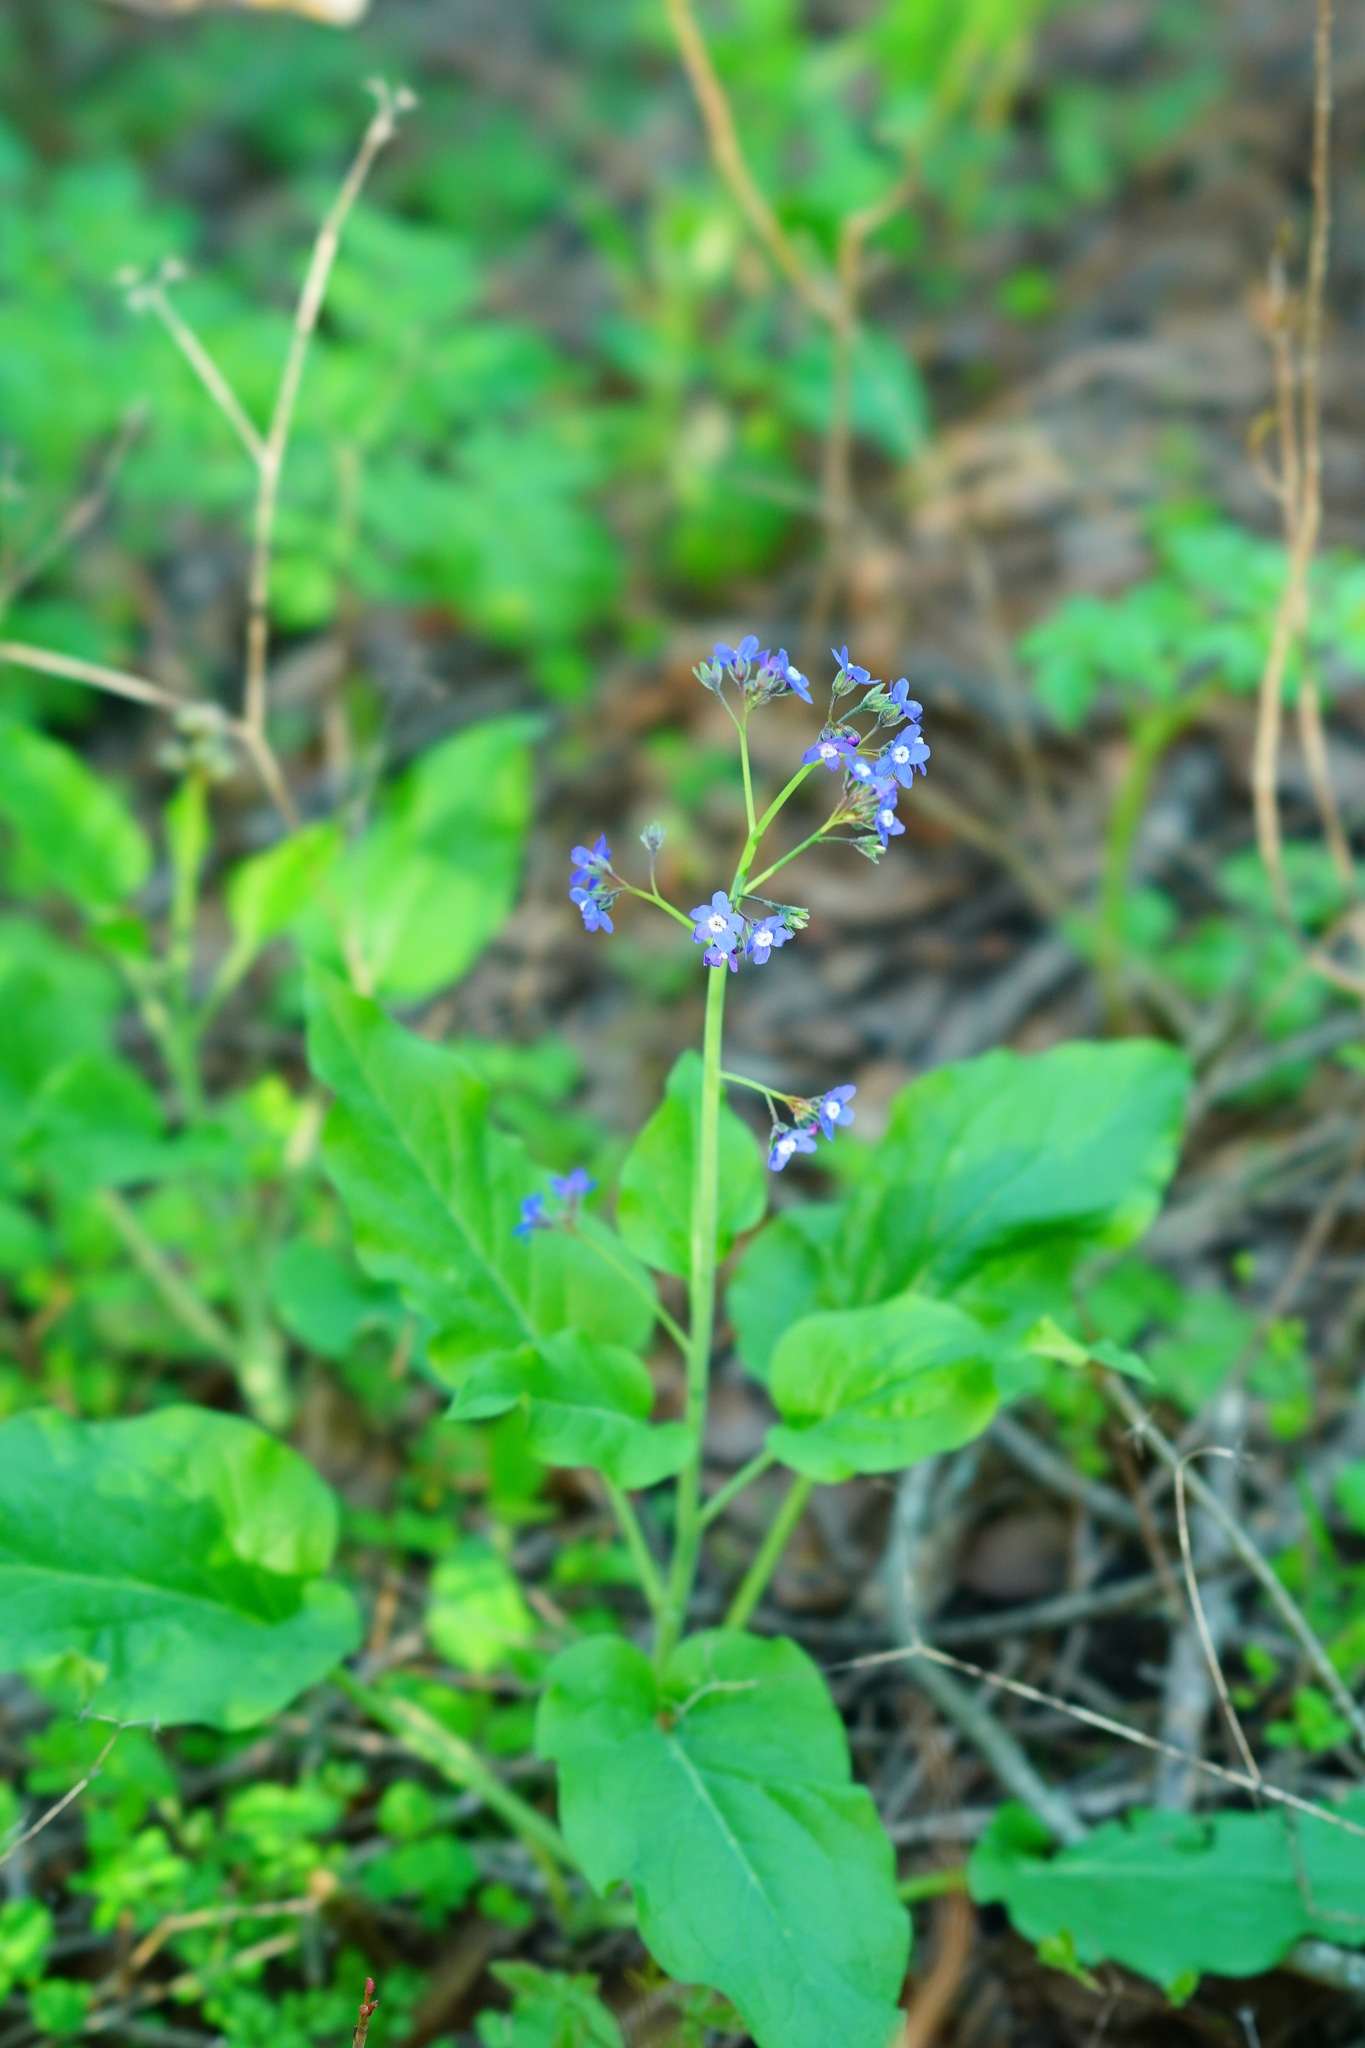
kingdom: Plantae
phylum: Tracheophyta
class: Magnoliopsida
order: Boraginales
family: Boraginaceae
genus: Adelinia
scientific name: Adelinia grande
